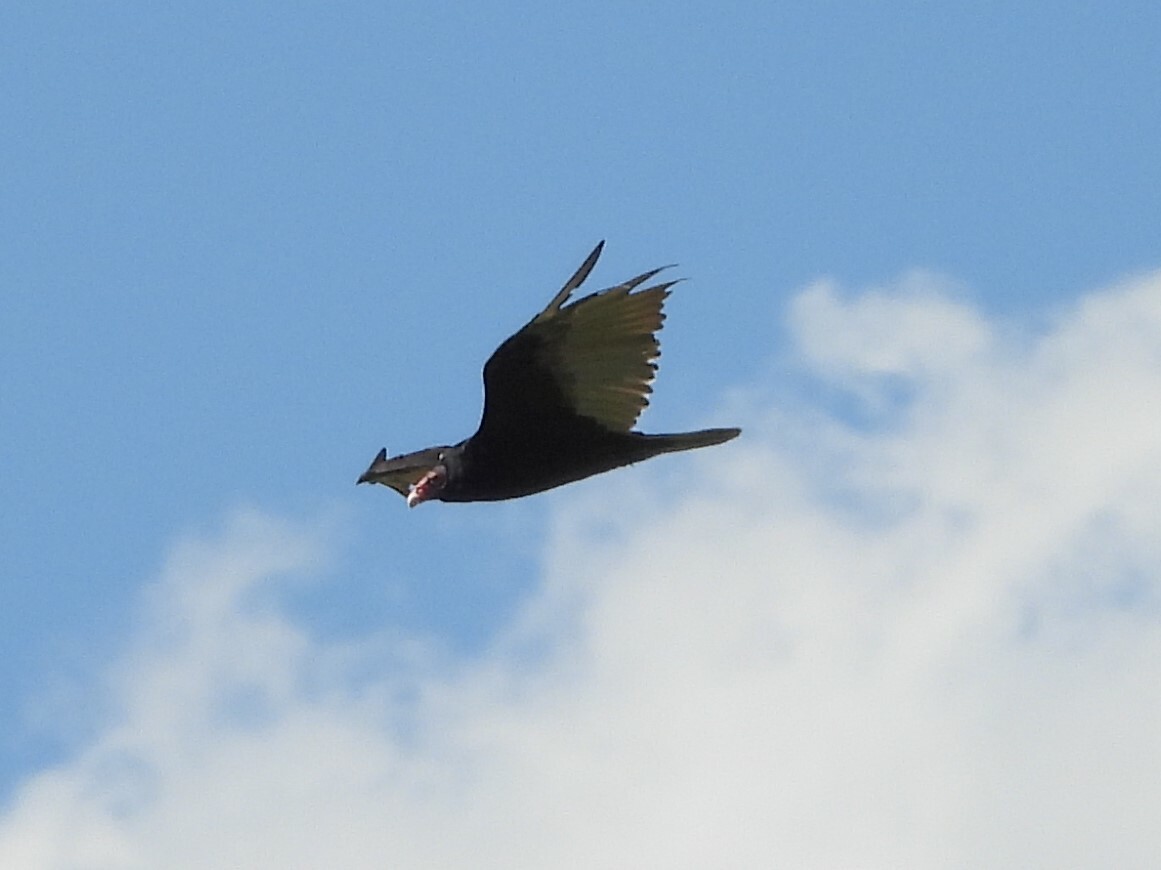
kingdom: Animalia
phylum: Chordata
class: Aves
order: Accipitriformes
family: Cathartidae
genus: Cathartes
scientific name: Cathartes aura
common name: Turkey vulture
